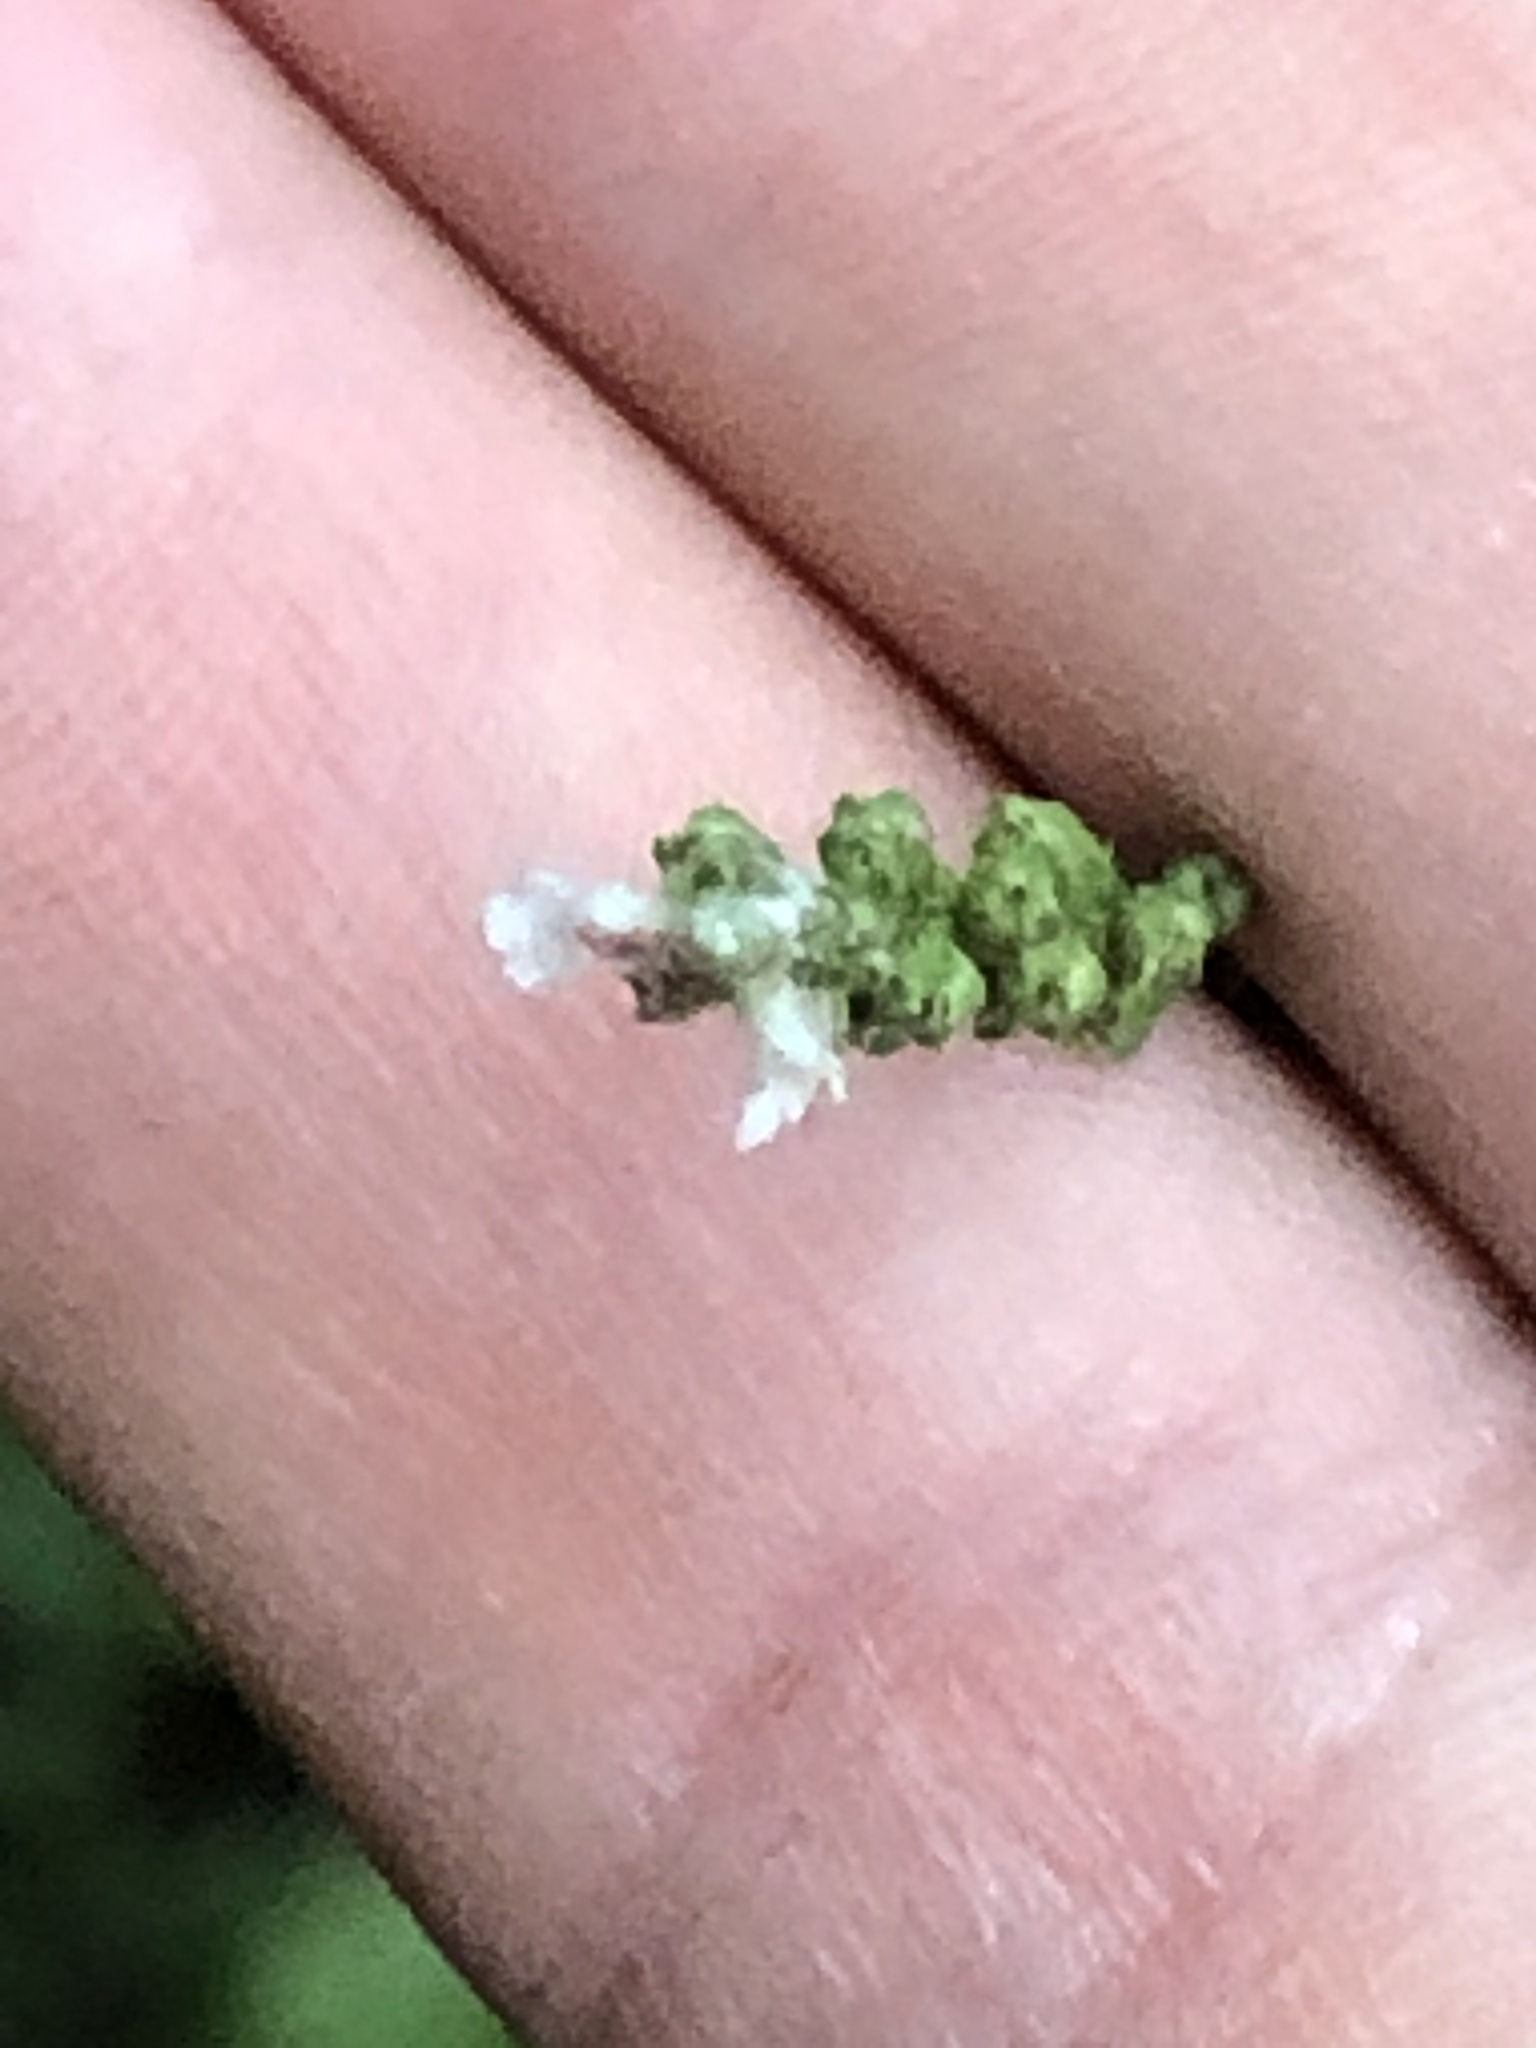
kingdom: Plantae
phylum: Tracheophyta
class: Magnoliopsida
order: Lamiales
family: Verbenaceae
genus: Verbena
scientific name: Verbena urticifolia
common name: Nettle-leaved vervain
